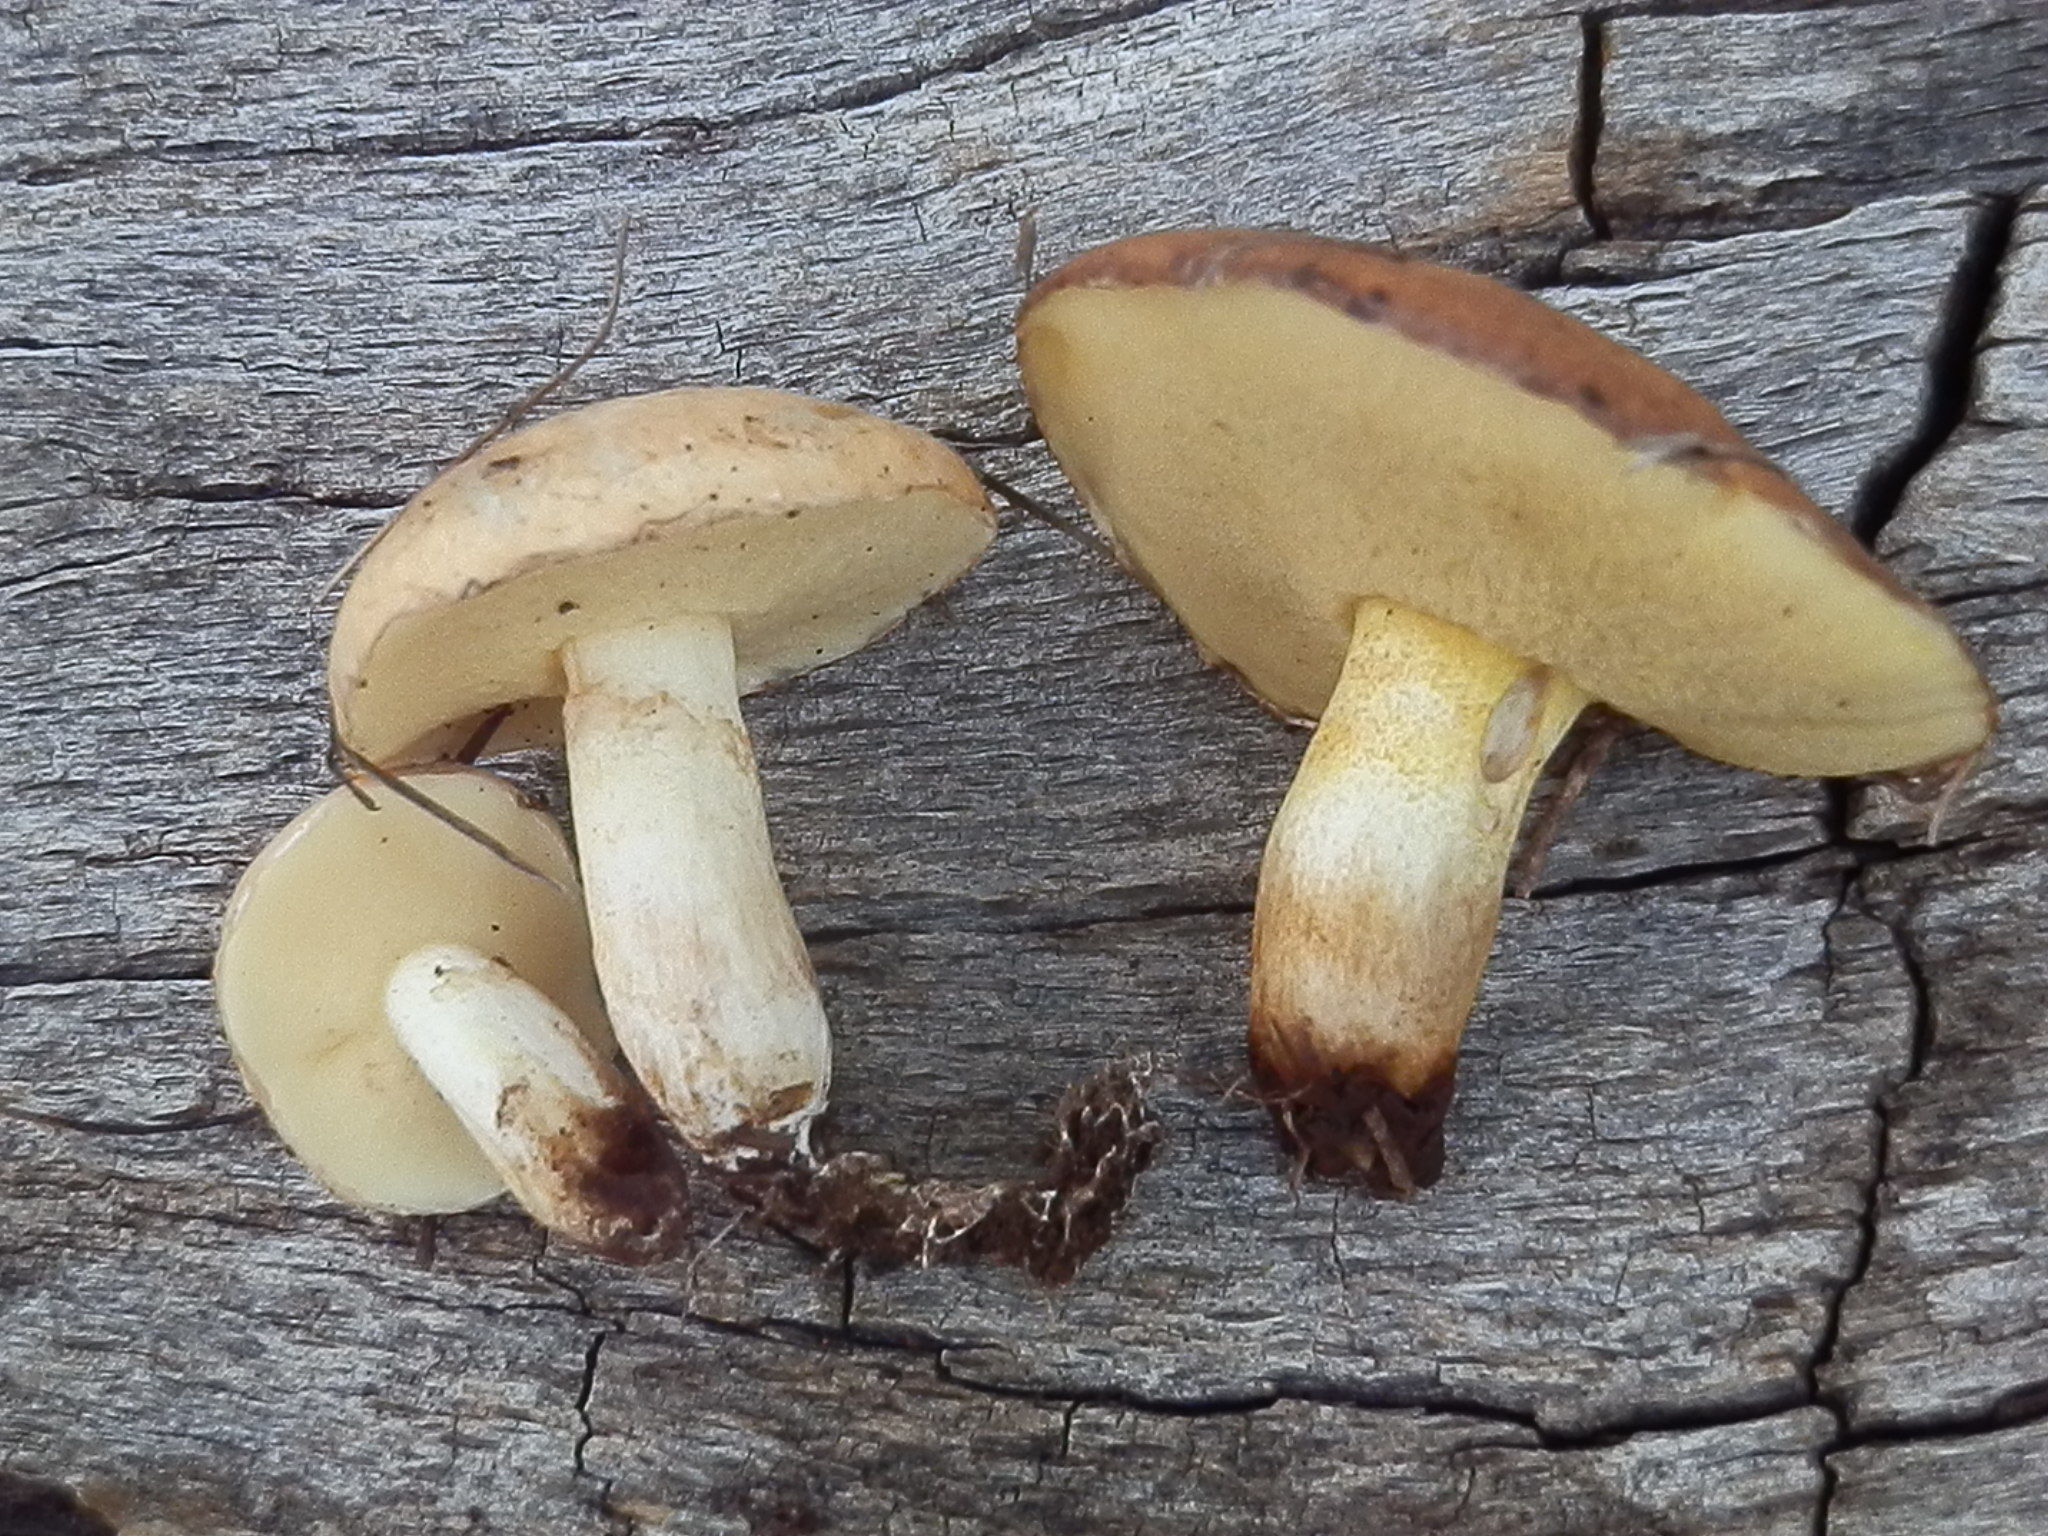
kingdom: Fungi
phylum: Basidiomycota
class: Agaricomycetes
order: Boletales
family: Suillaceae
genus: Suillus
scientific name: Suillus kaibabensis
